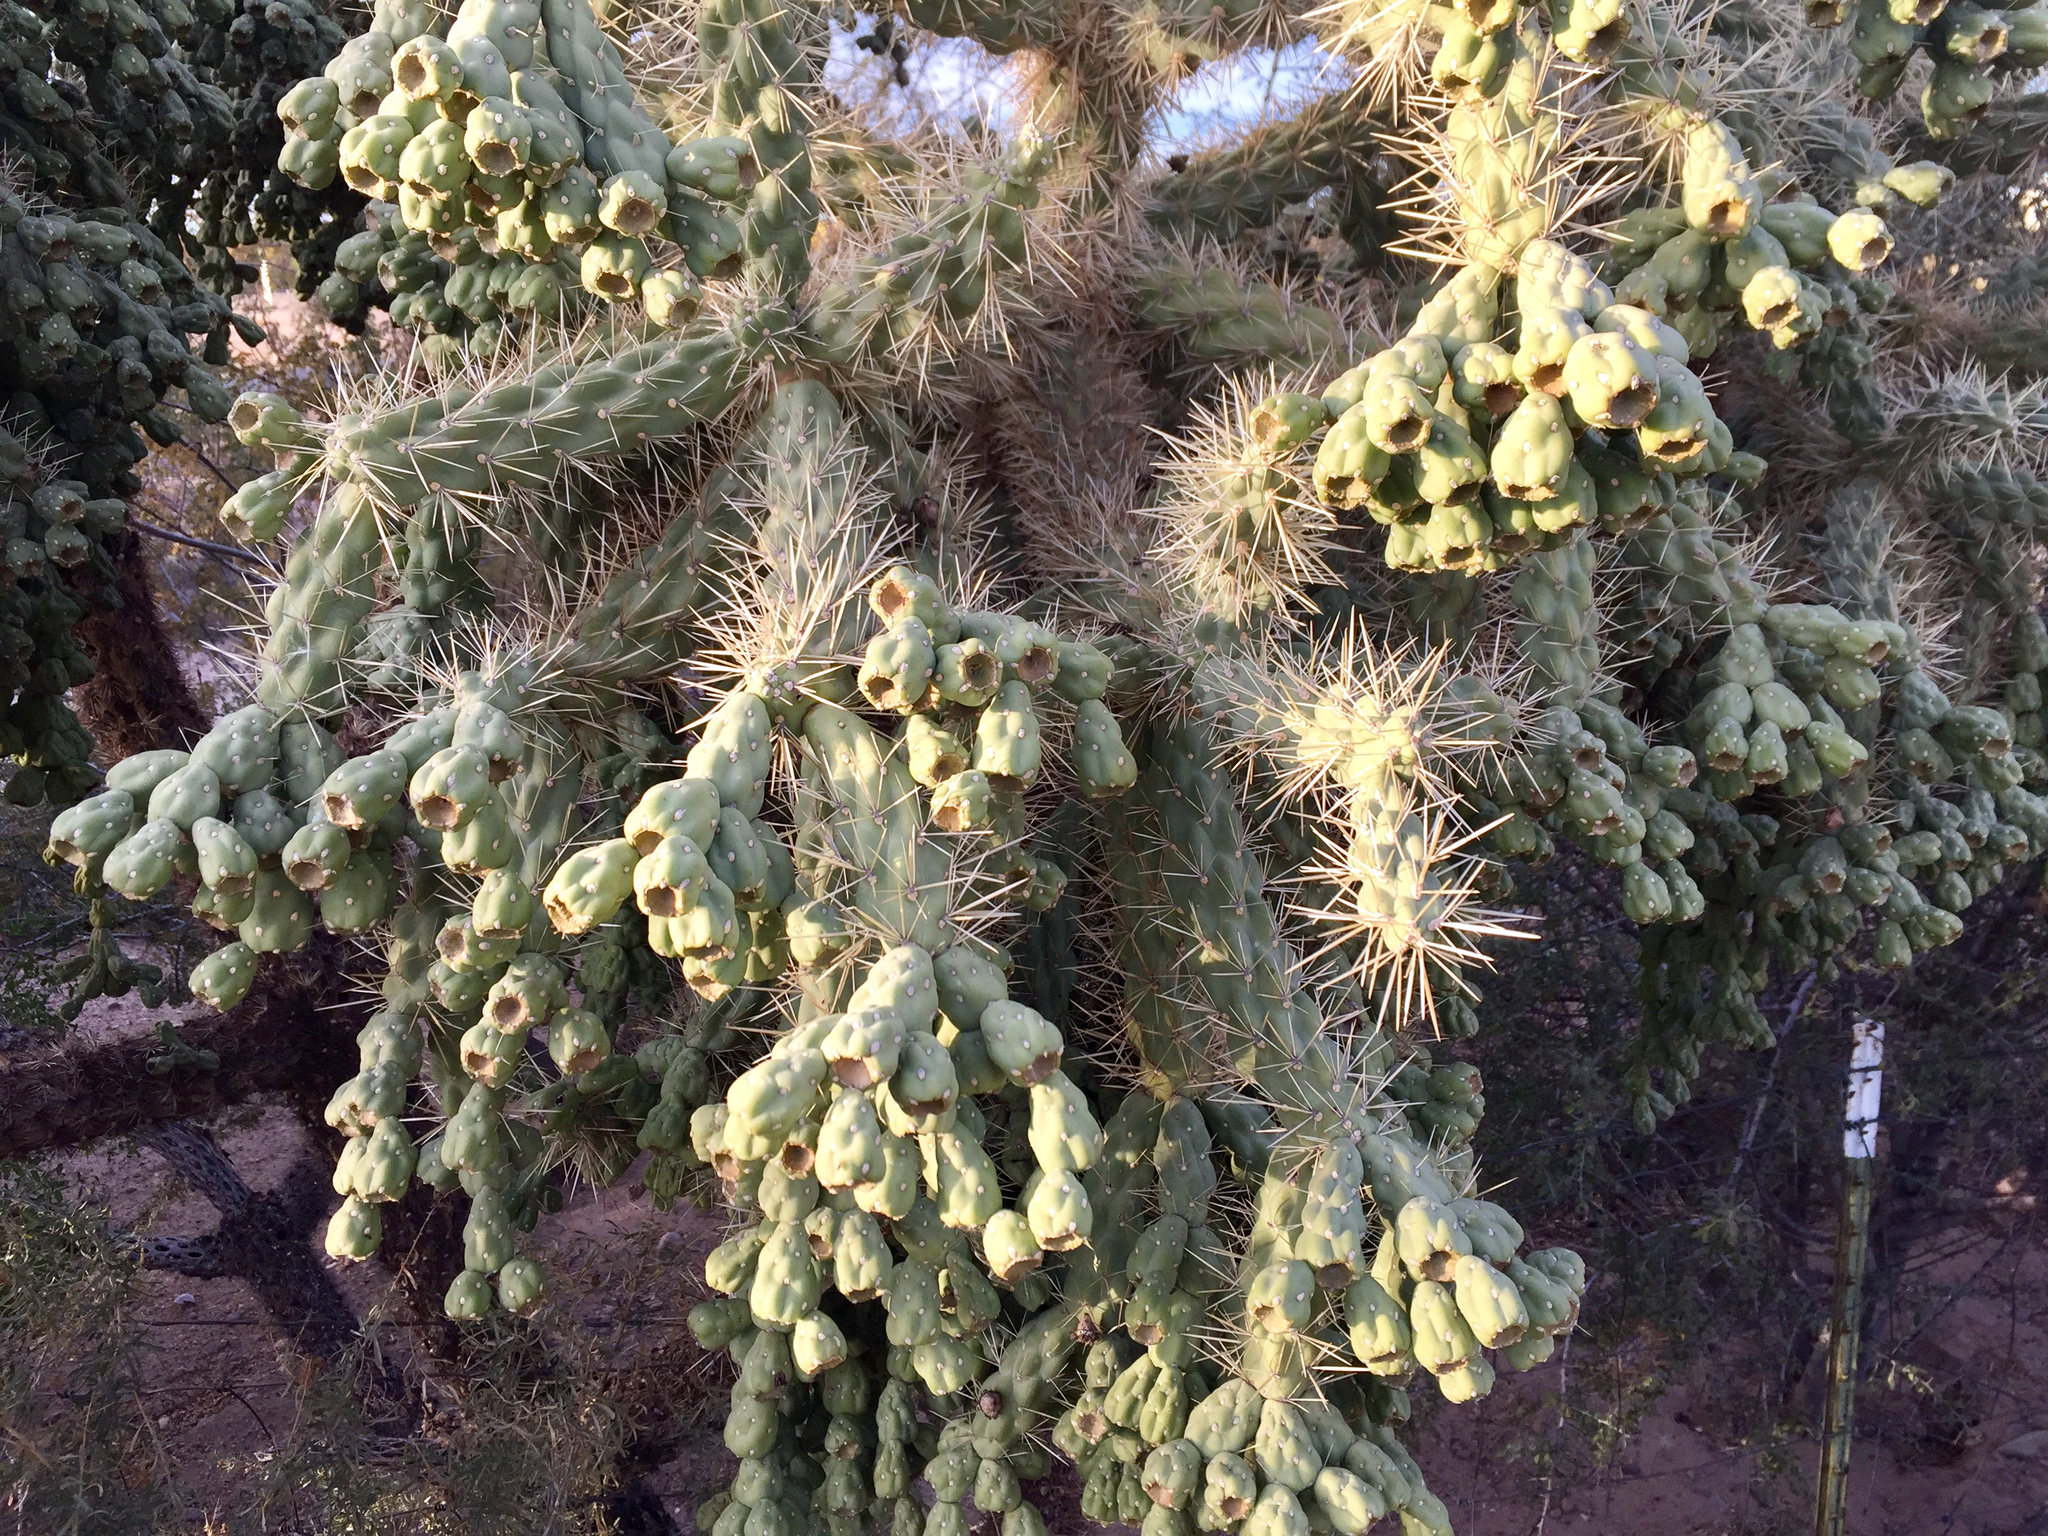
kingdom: Plantae
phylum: Tracheophyta
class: Magnoliopsida
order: Caryophyllales
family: Cactaceae
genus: Cylindropuntia
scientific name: Cylindropuntia fulgida
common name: Jumping cholla
